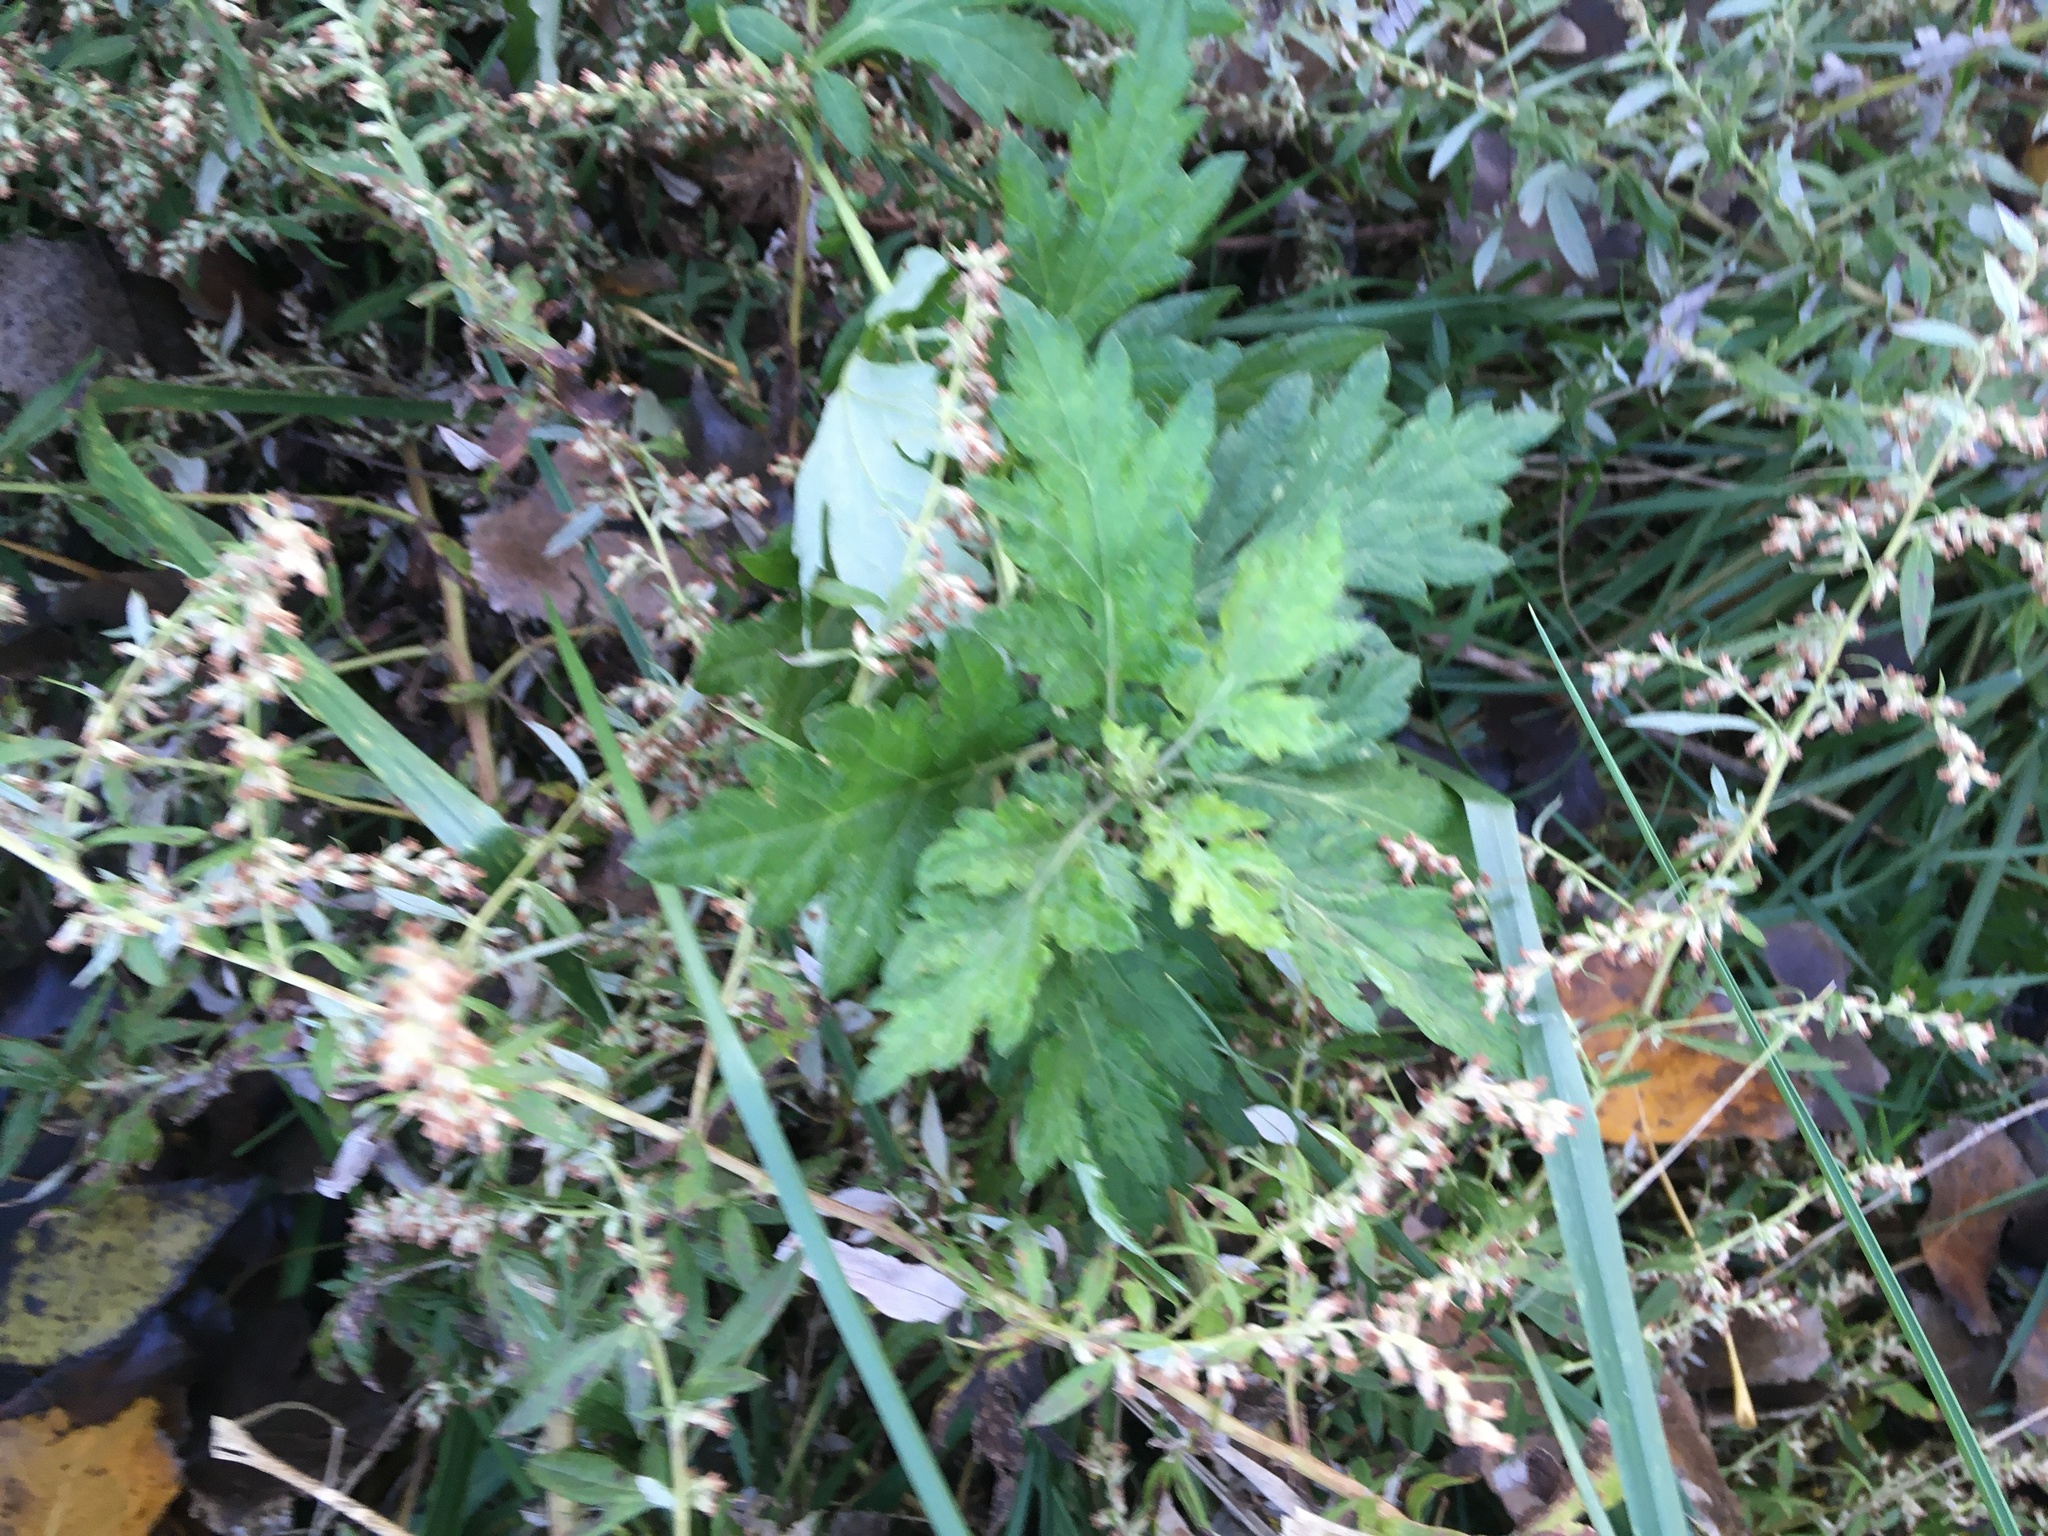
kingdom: Plantae
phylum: Tracheophyta
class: Magnoliopsida
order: Asterales
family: Asteraceae
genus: Artemisia
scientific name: Artemisia vulgaris
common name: Mugwort
